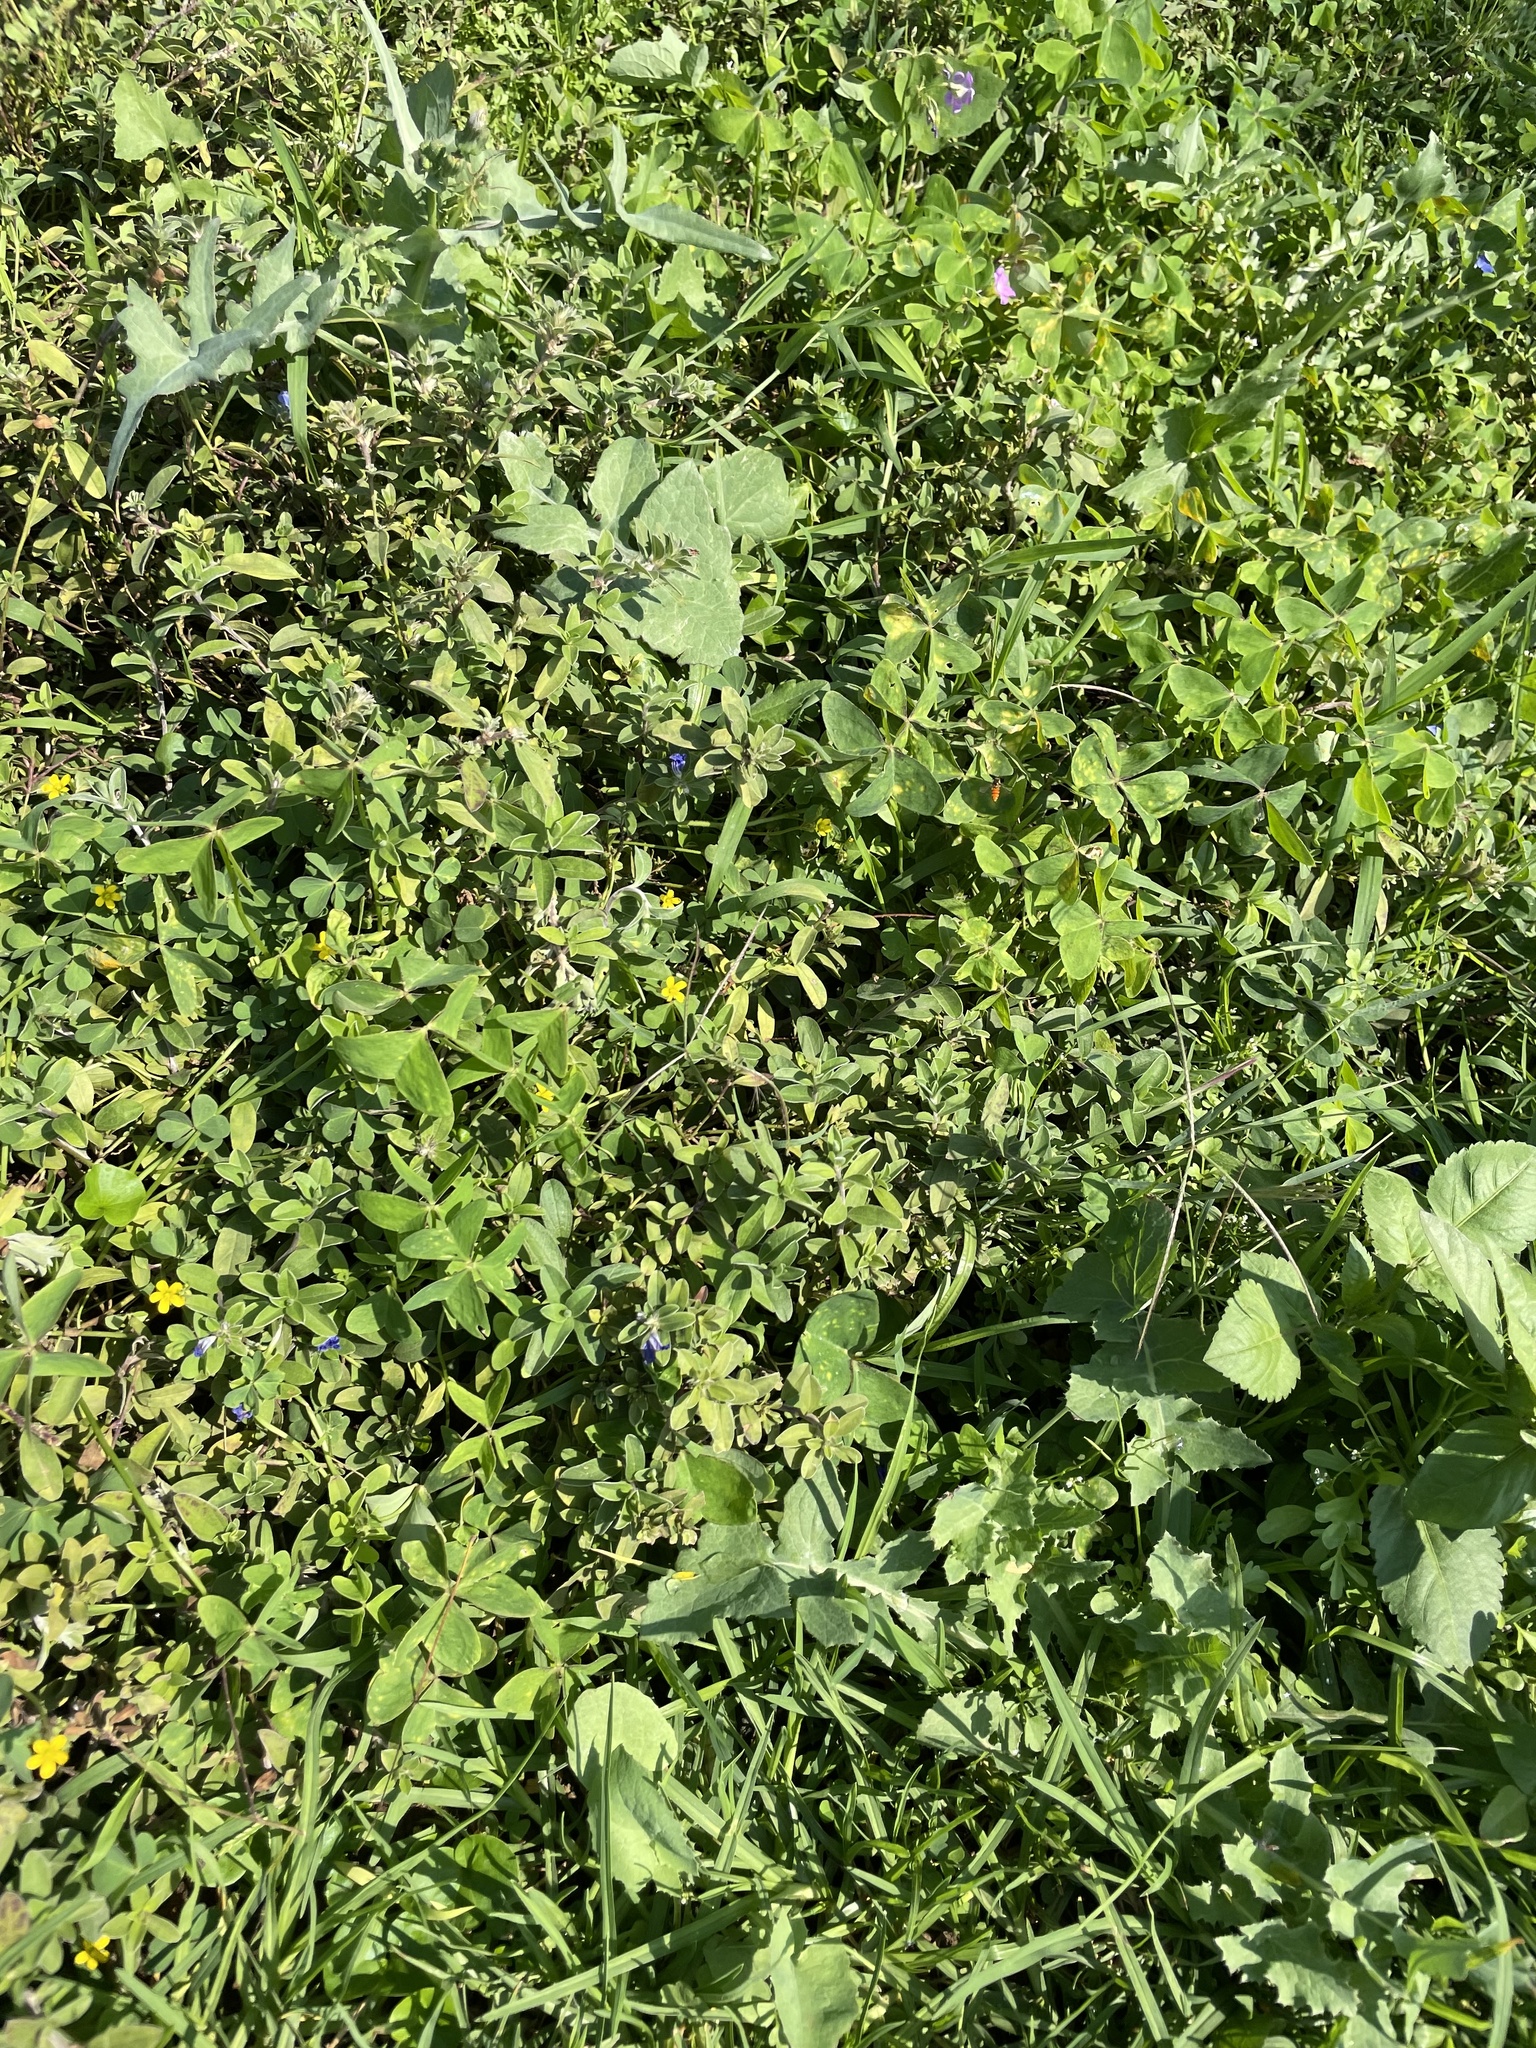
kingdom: Animalia
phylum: Arthropoda
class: Insecta
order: Diptera
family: Syrphidae
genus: Episyrphus
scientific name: Episyrphus trisectus
